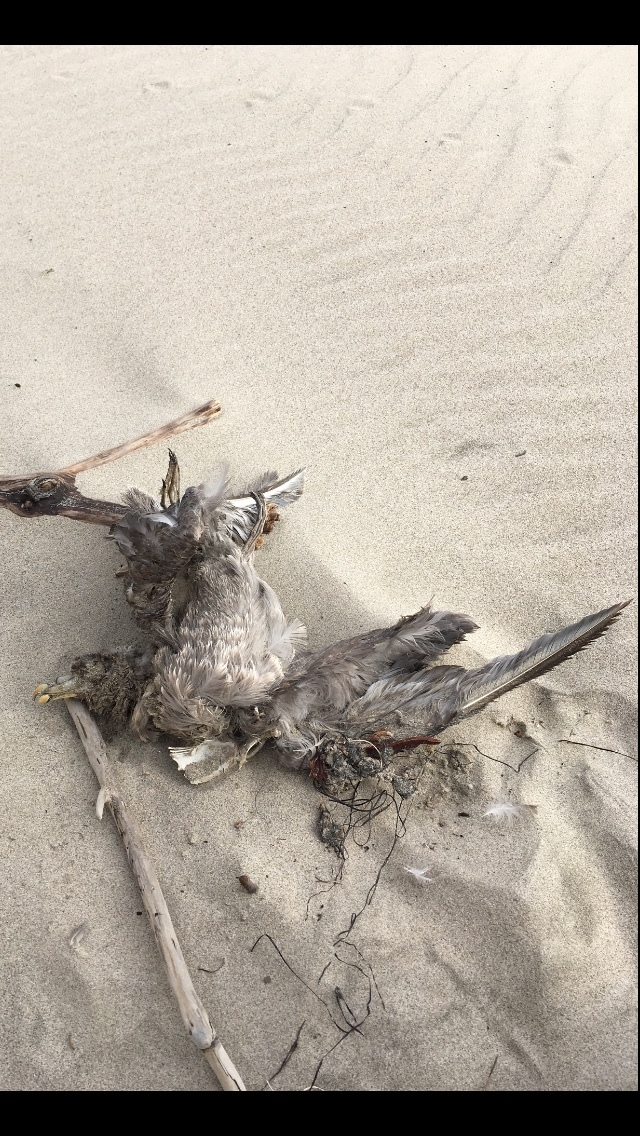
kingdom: Animalia
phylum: Chordata
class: Aves
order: Procellariiformes
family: Procellariidae
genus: Fulmarus
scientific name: Fulmarus glacialis
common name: Northern fulmar
